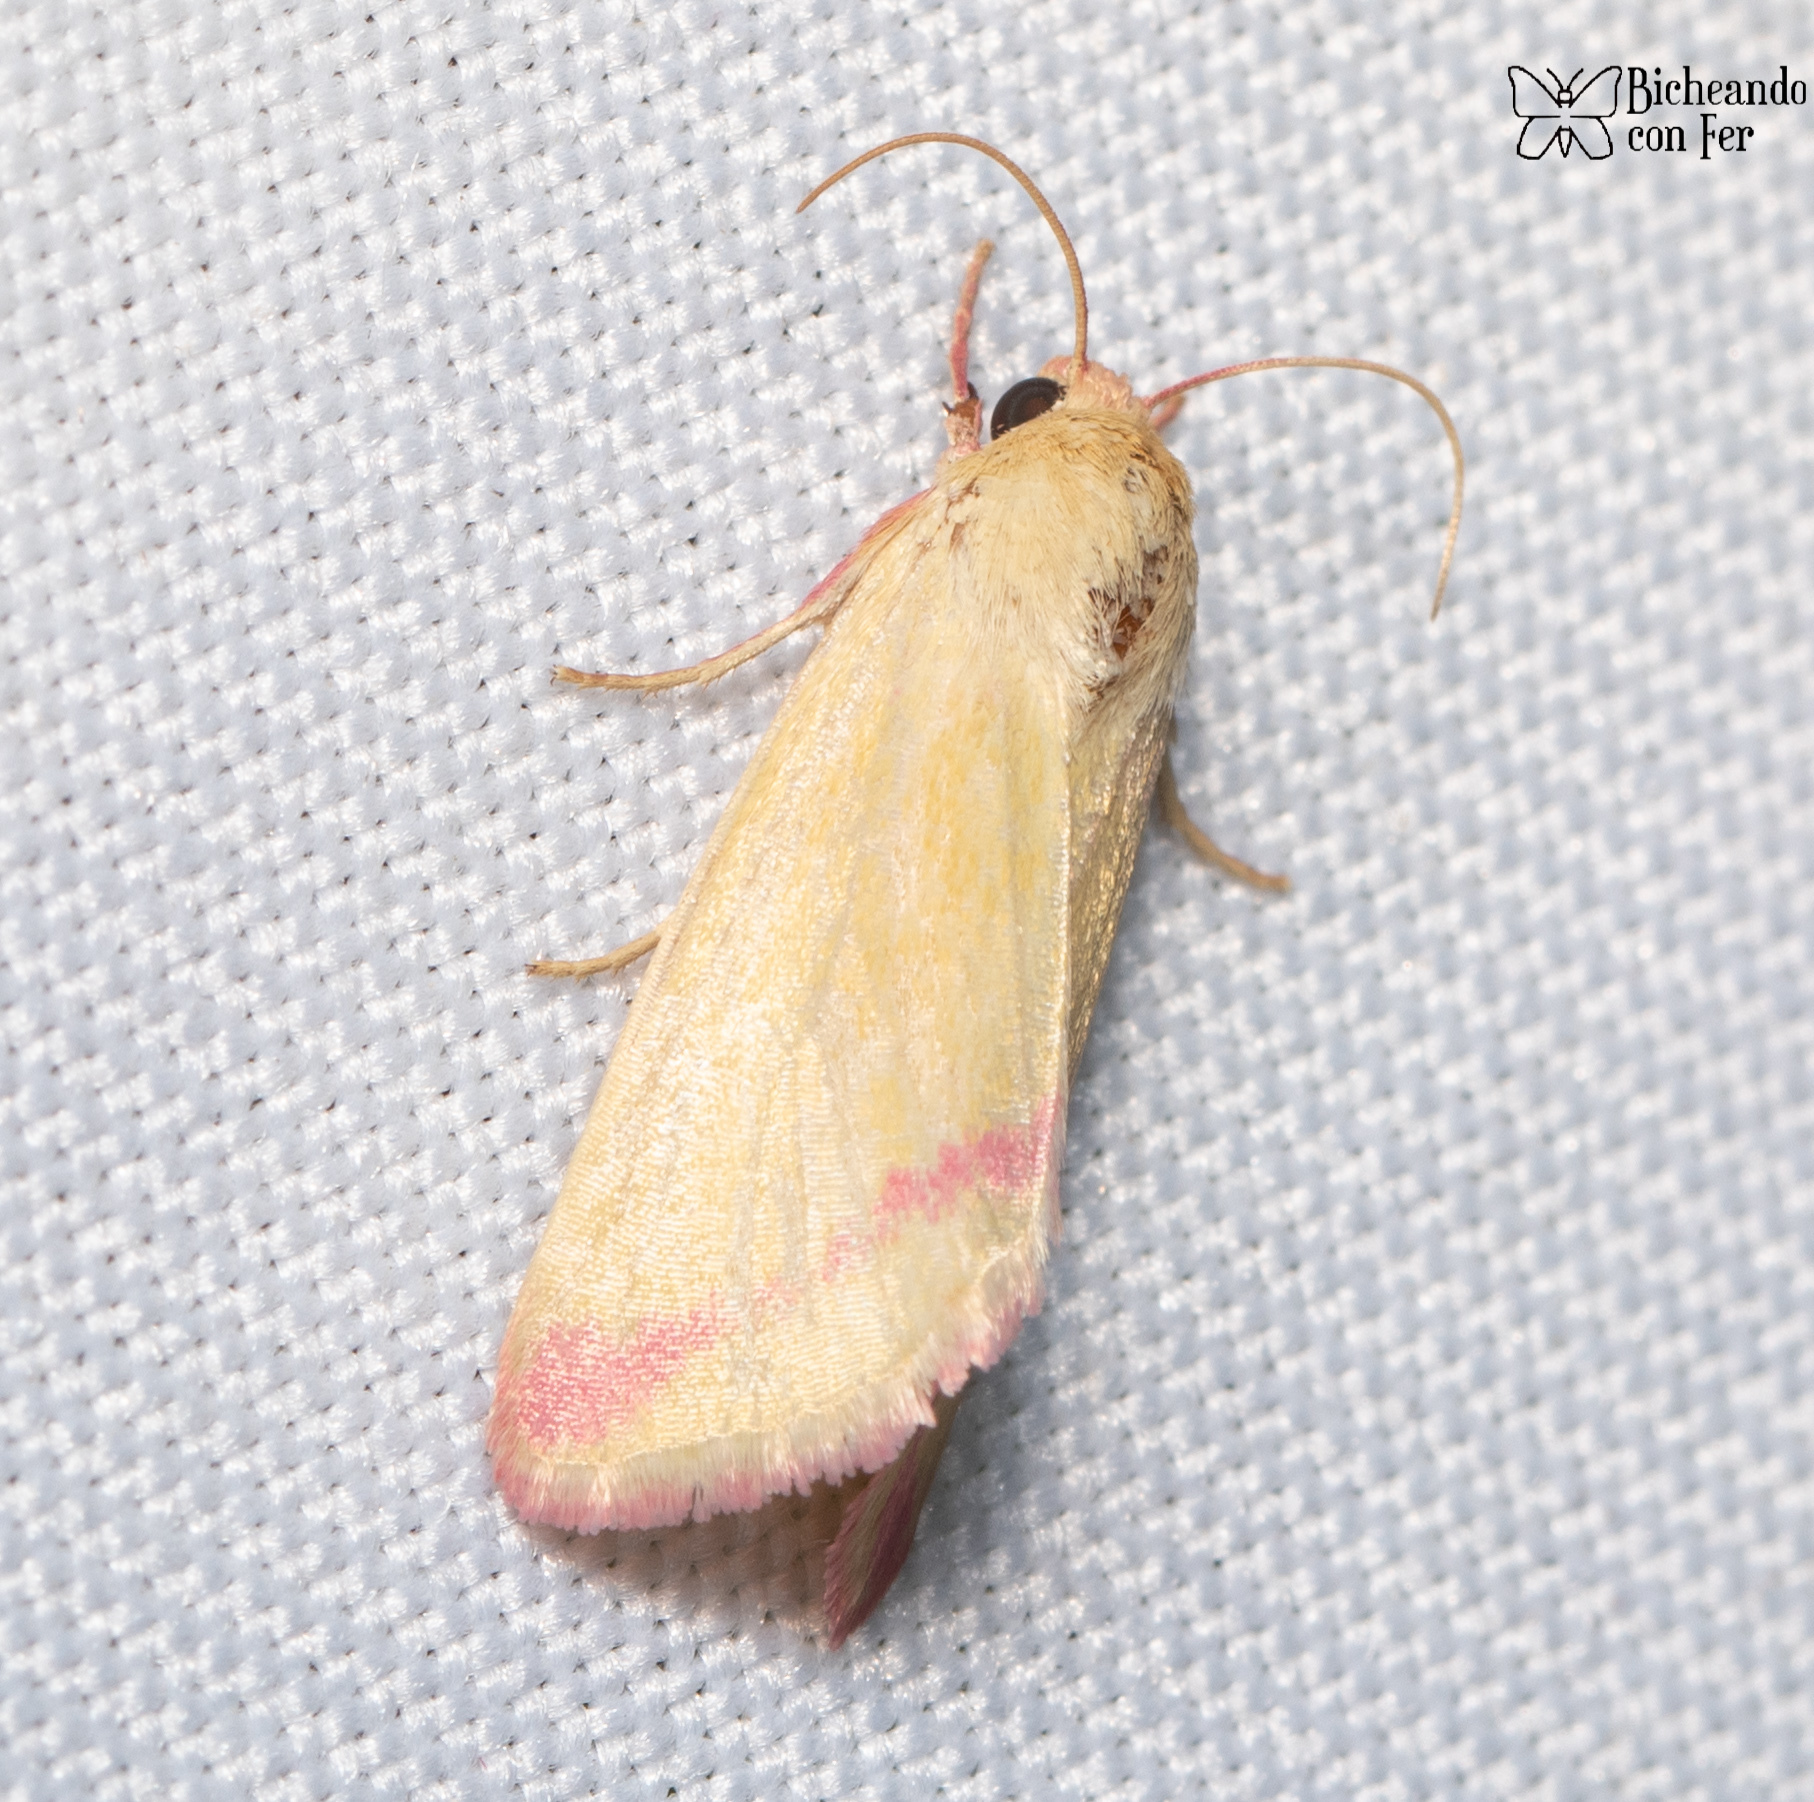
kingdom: Animalia
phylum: Arthropoda
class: Insecta
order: Lepidoptera
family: Noctuidae
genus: Heliocheilus
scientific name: Heliocheilus toralis
